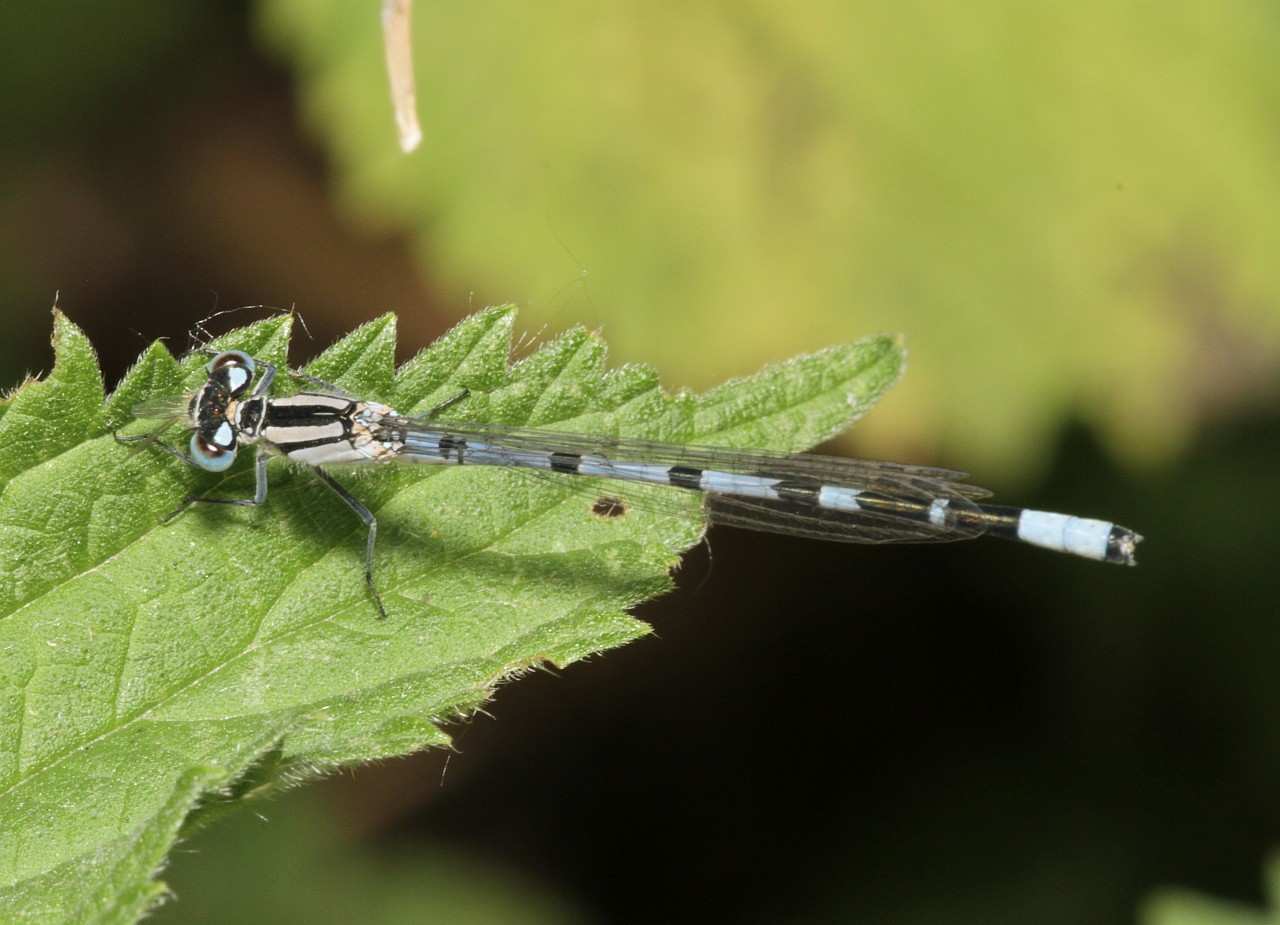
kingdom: Animalia
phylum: Arthropoda
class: Insecta
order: Odonata
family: Coenagrionidae
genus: Enallagma
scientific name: Enallagma cyathigerum
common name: Common blue damselfly
